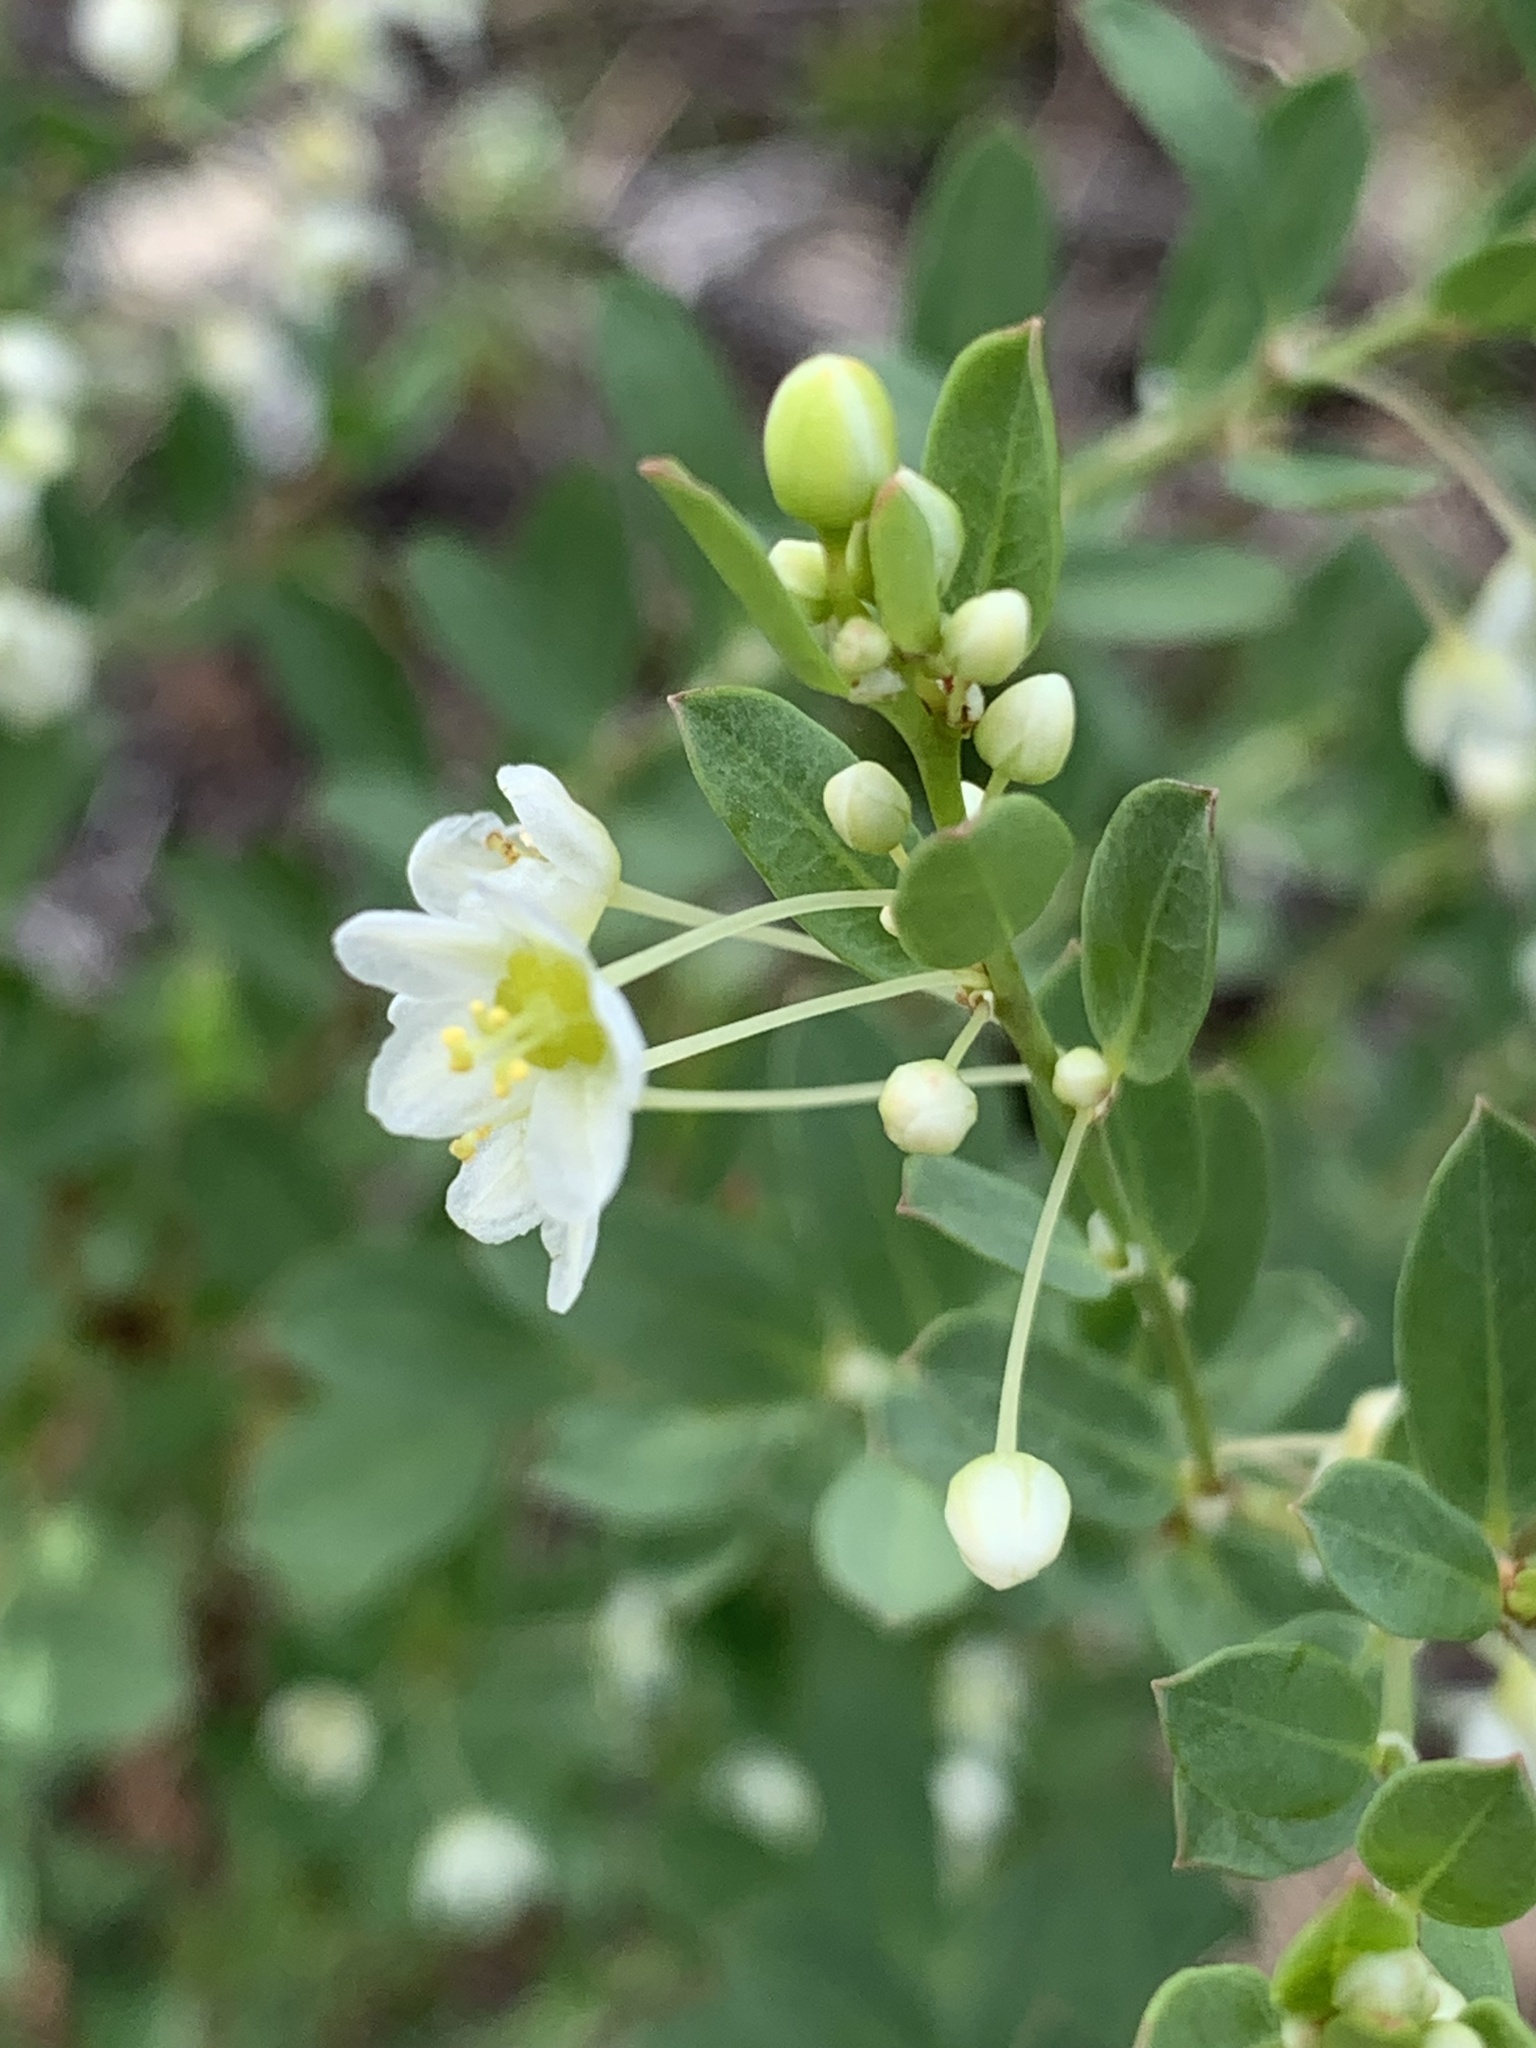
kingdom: Plantae
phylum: Tracheophyta
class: Magnoliopsida
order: Malpighiales
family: Phyllanthaceae
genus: Phyllanthus
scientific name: Phyllanthus calycinus
